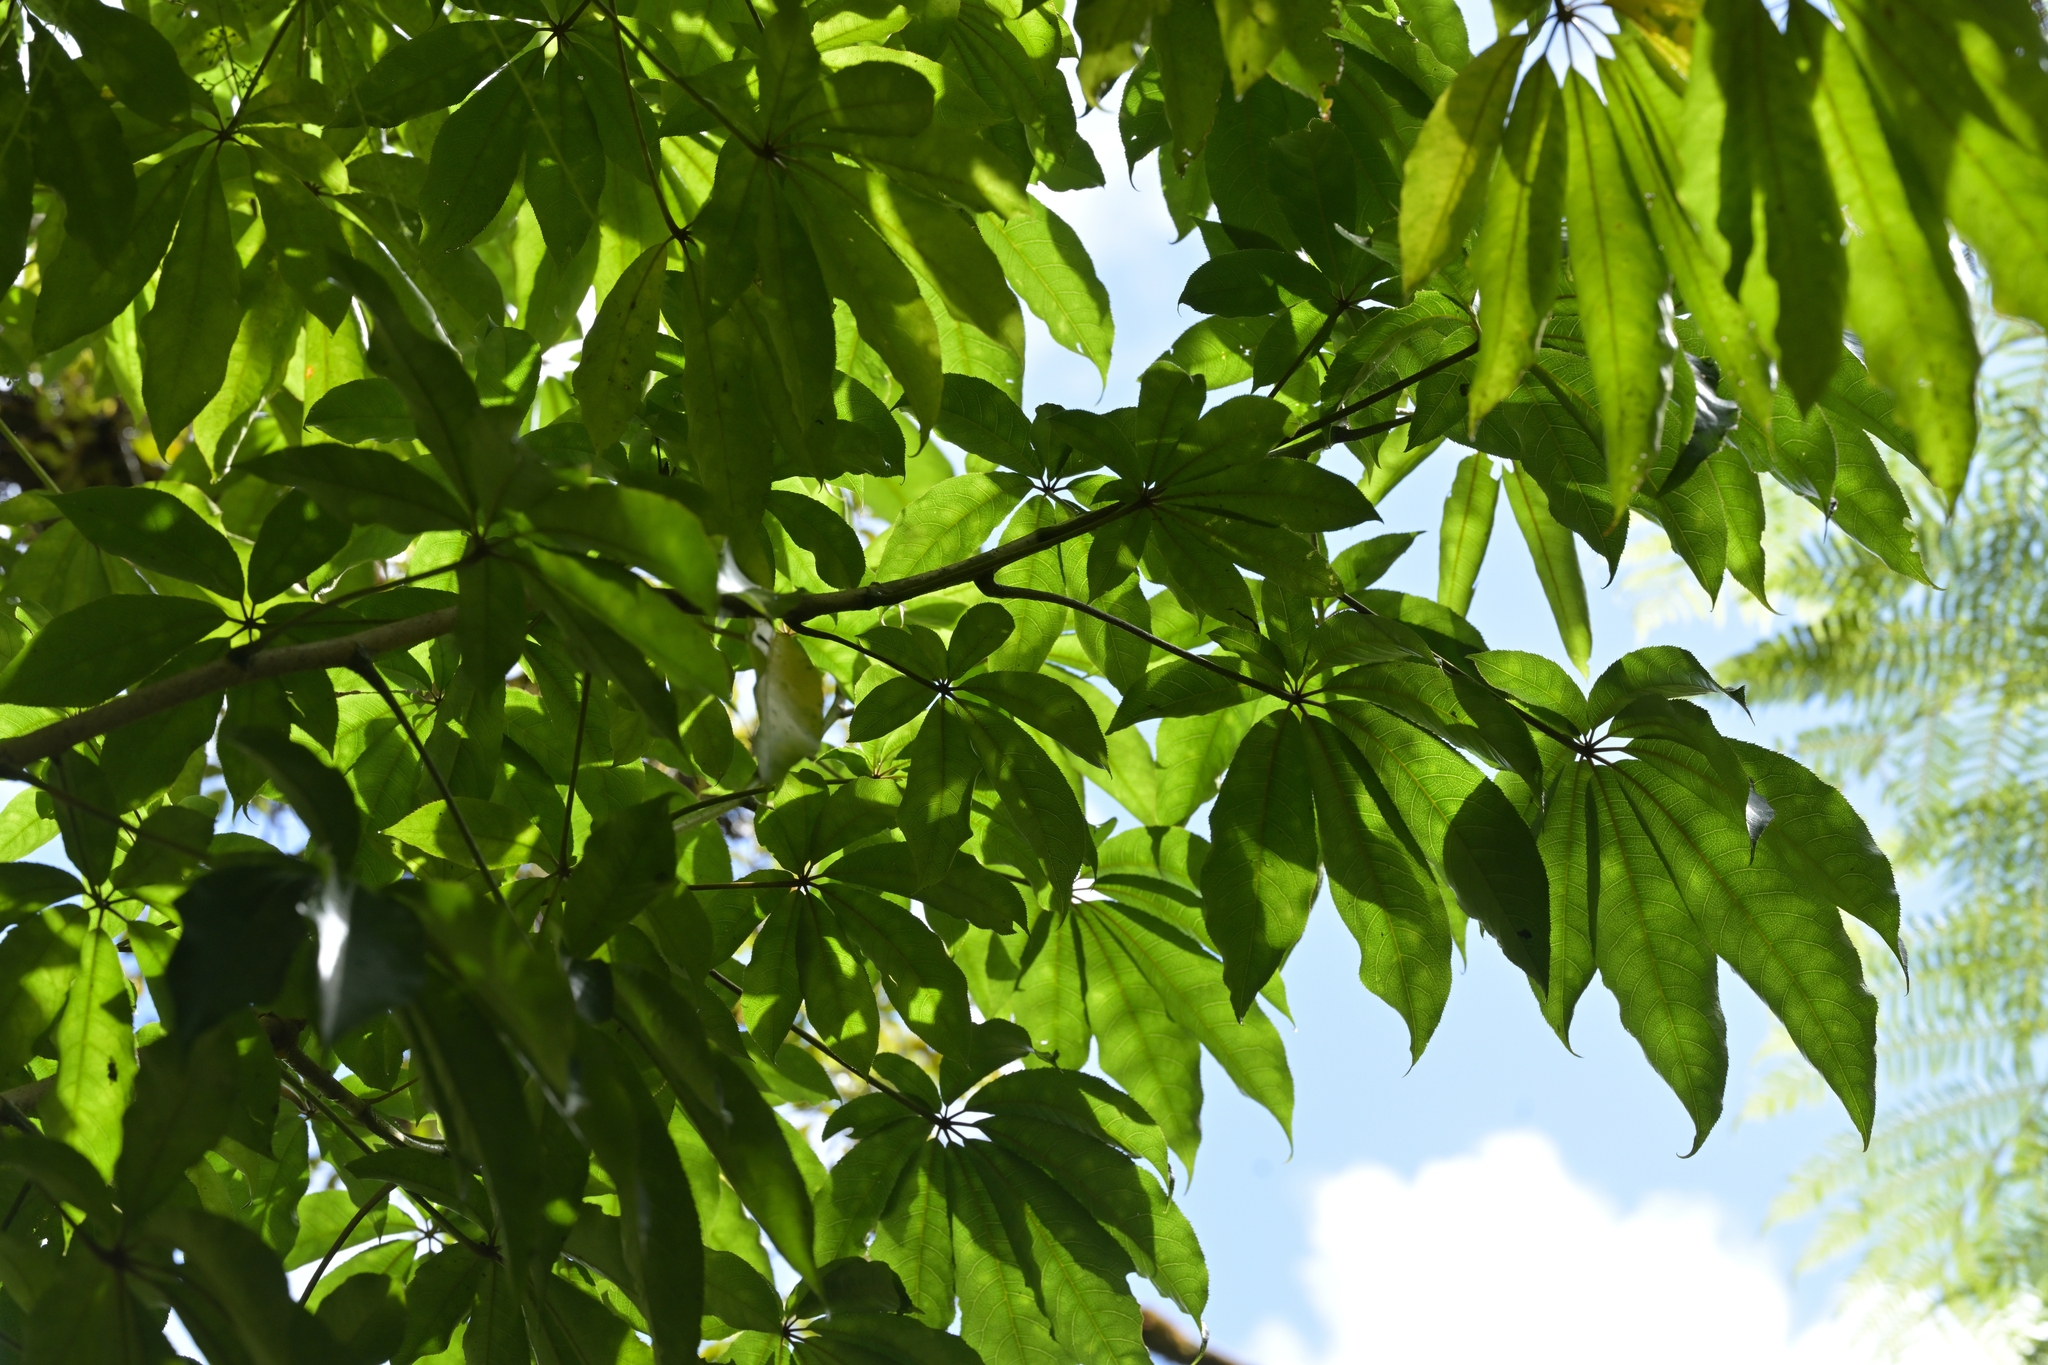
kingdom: Plantae
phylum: Tracheophyta
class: Magnoliopsida
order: Apiales
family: Araliaceae
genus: Schefflera
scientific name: Schefflera digitata
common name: Pate
